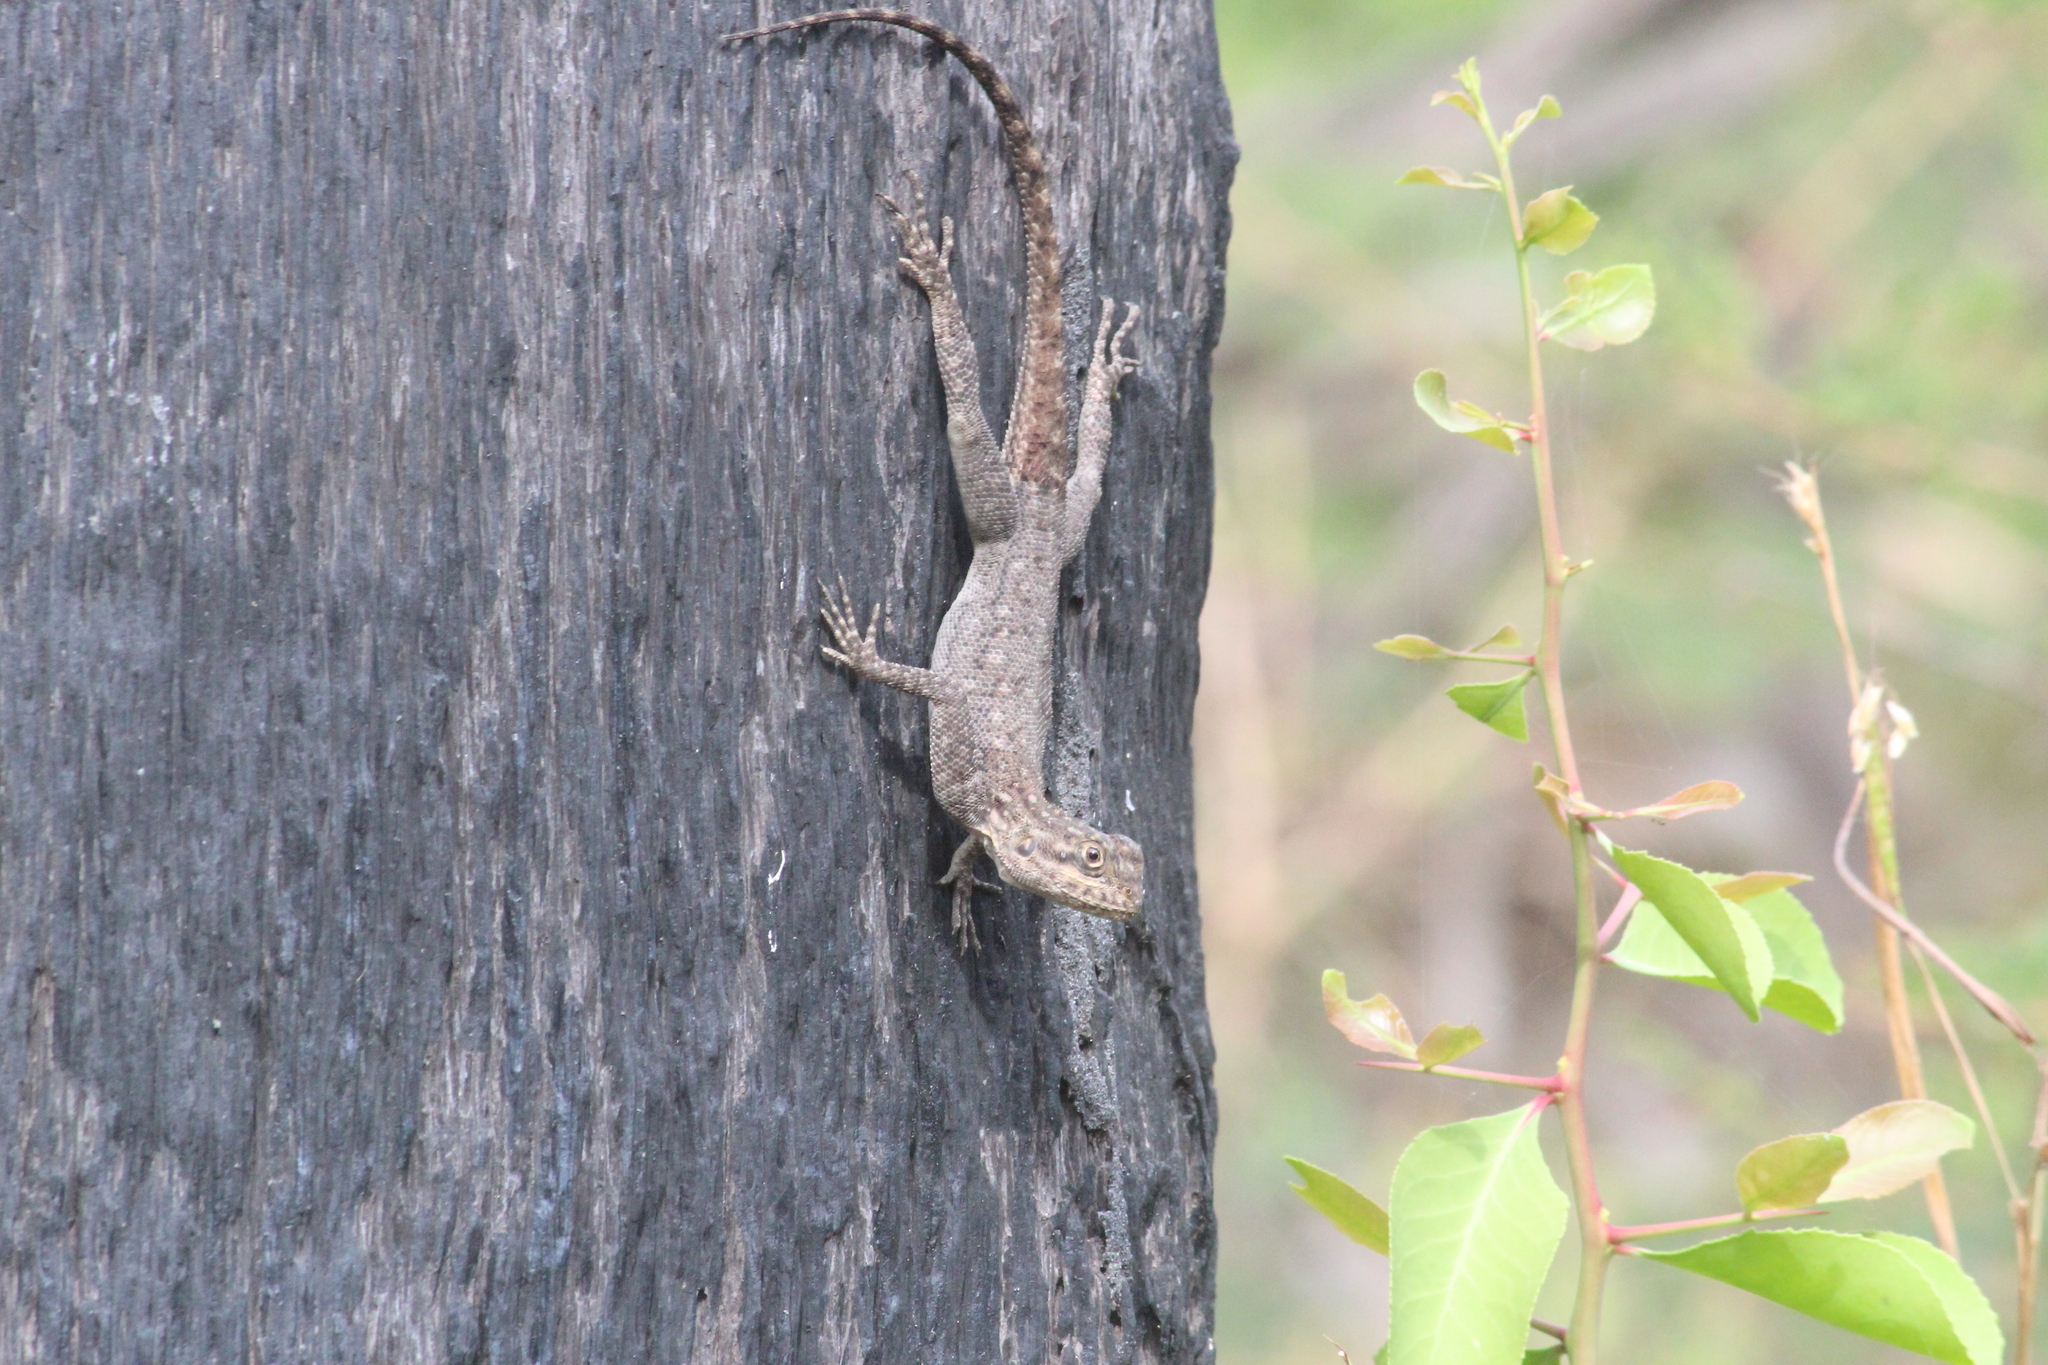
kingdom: Animalia
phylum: Chordata
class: Squamata
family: Agamidae
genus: Agama
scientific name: Agama agama
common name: Common agama
